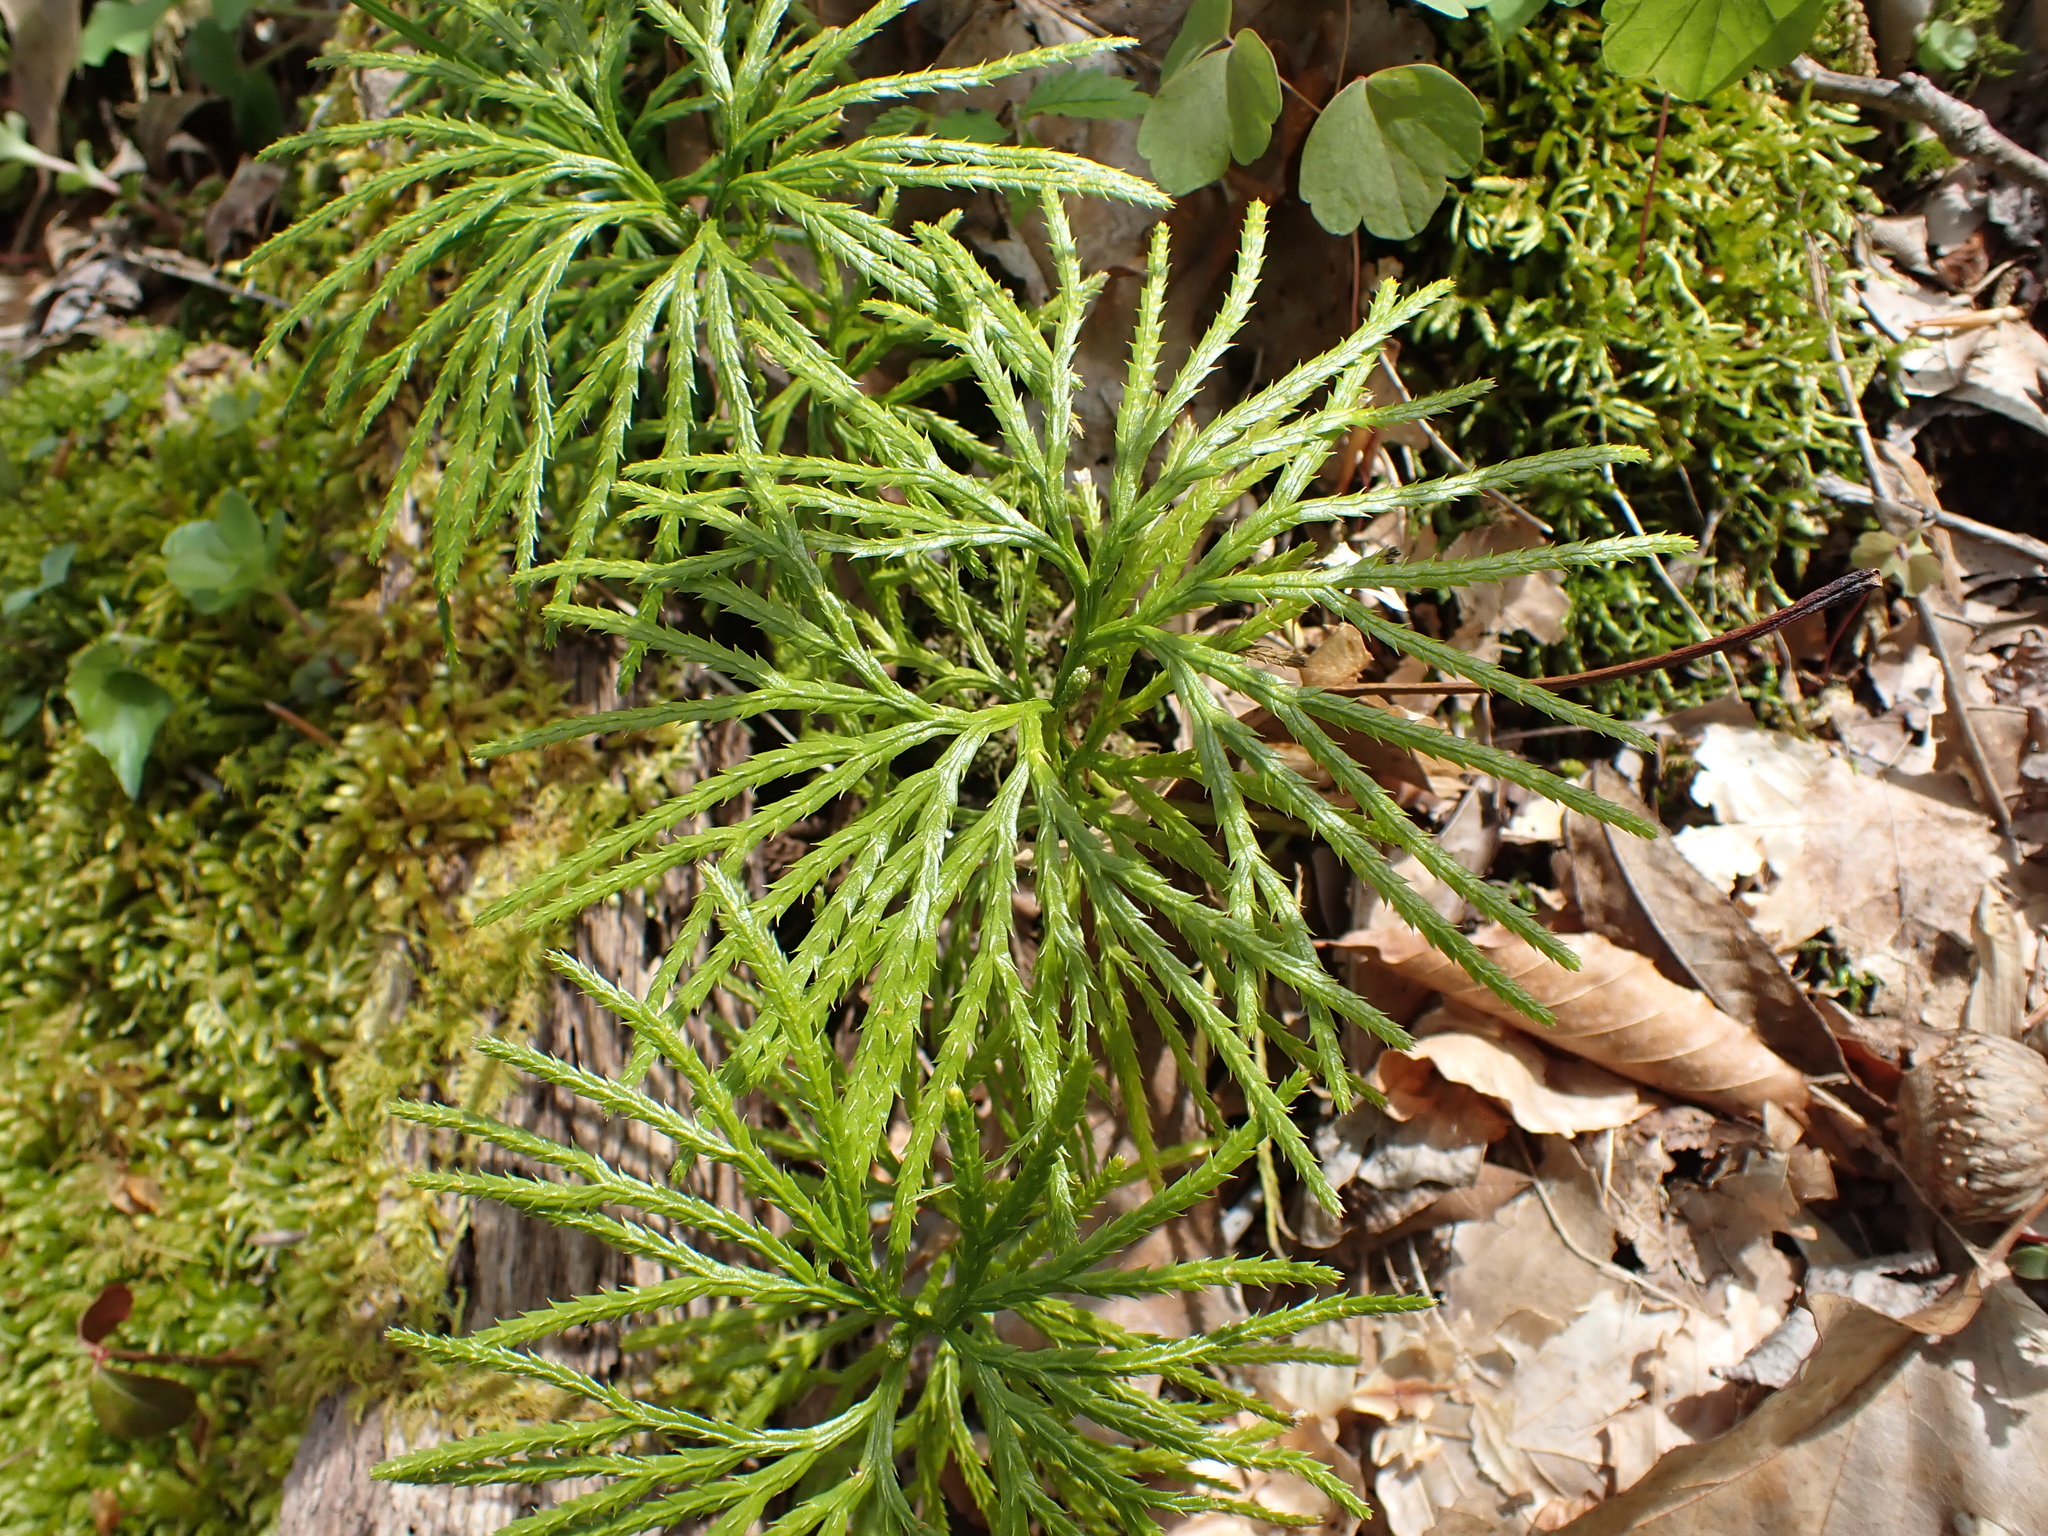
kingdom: Plantae
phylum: Tracheophyta
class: Lycopodiopsida
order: Lycopodiales
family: Lycopodiaceae
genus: Diphasiastrum
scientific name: Diphasiastrum digitatum
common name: Southern running-pine
